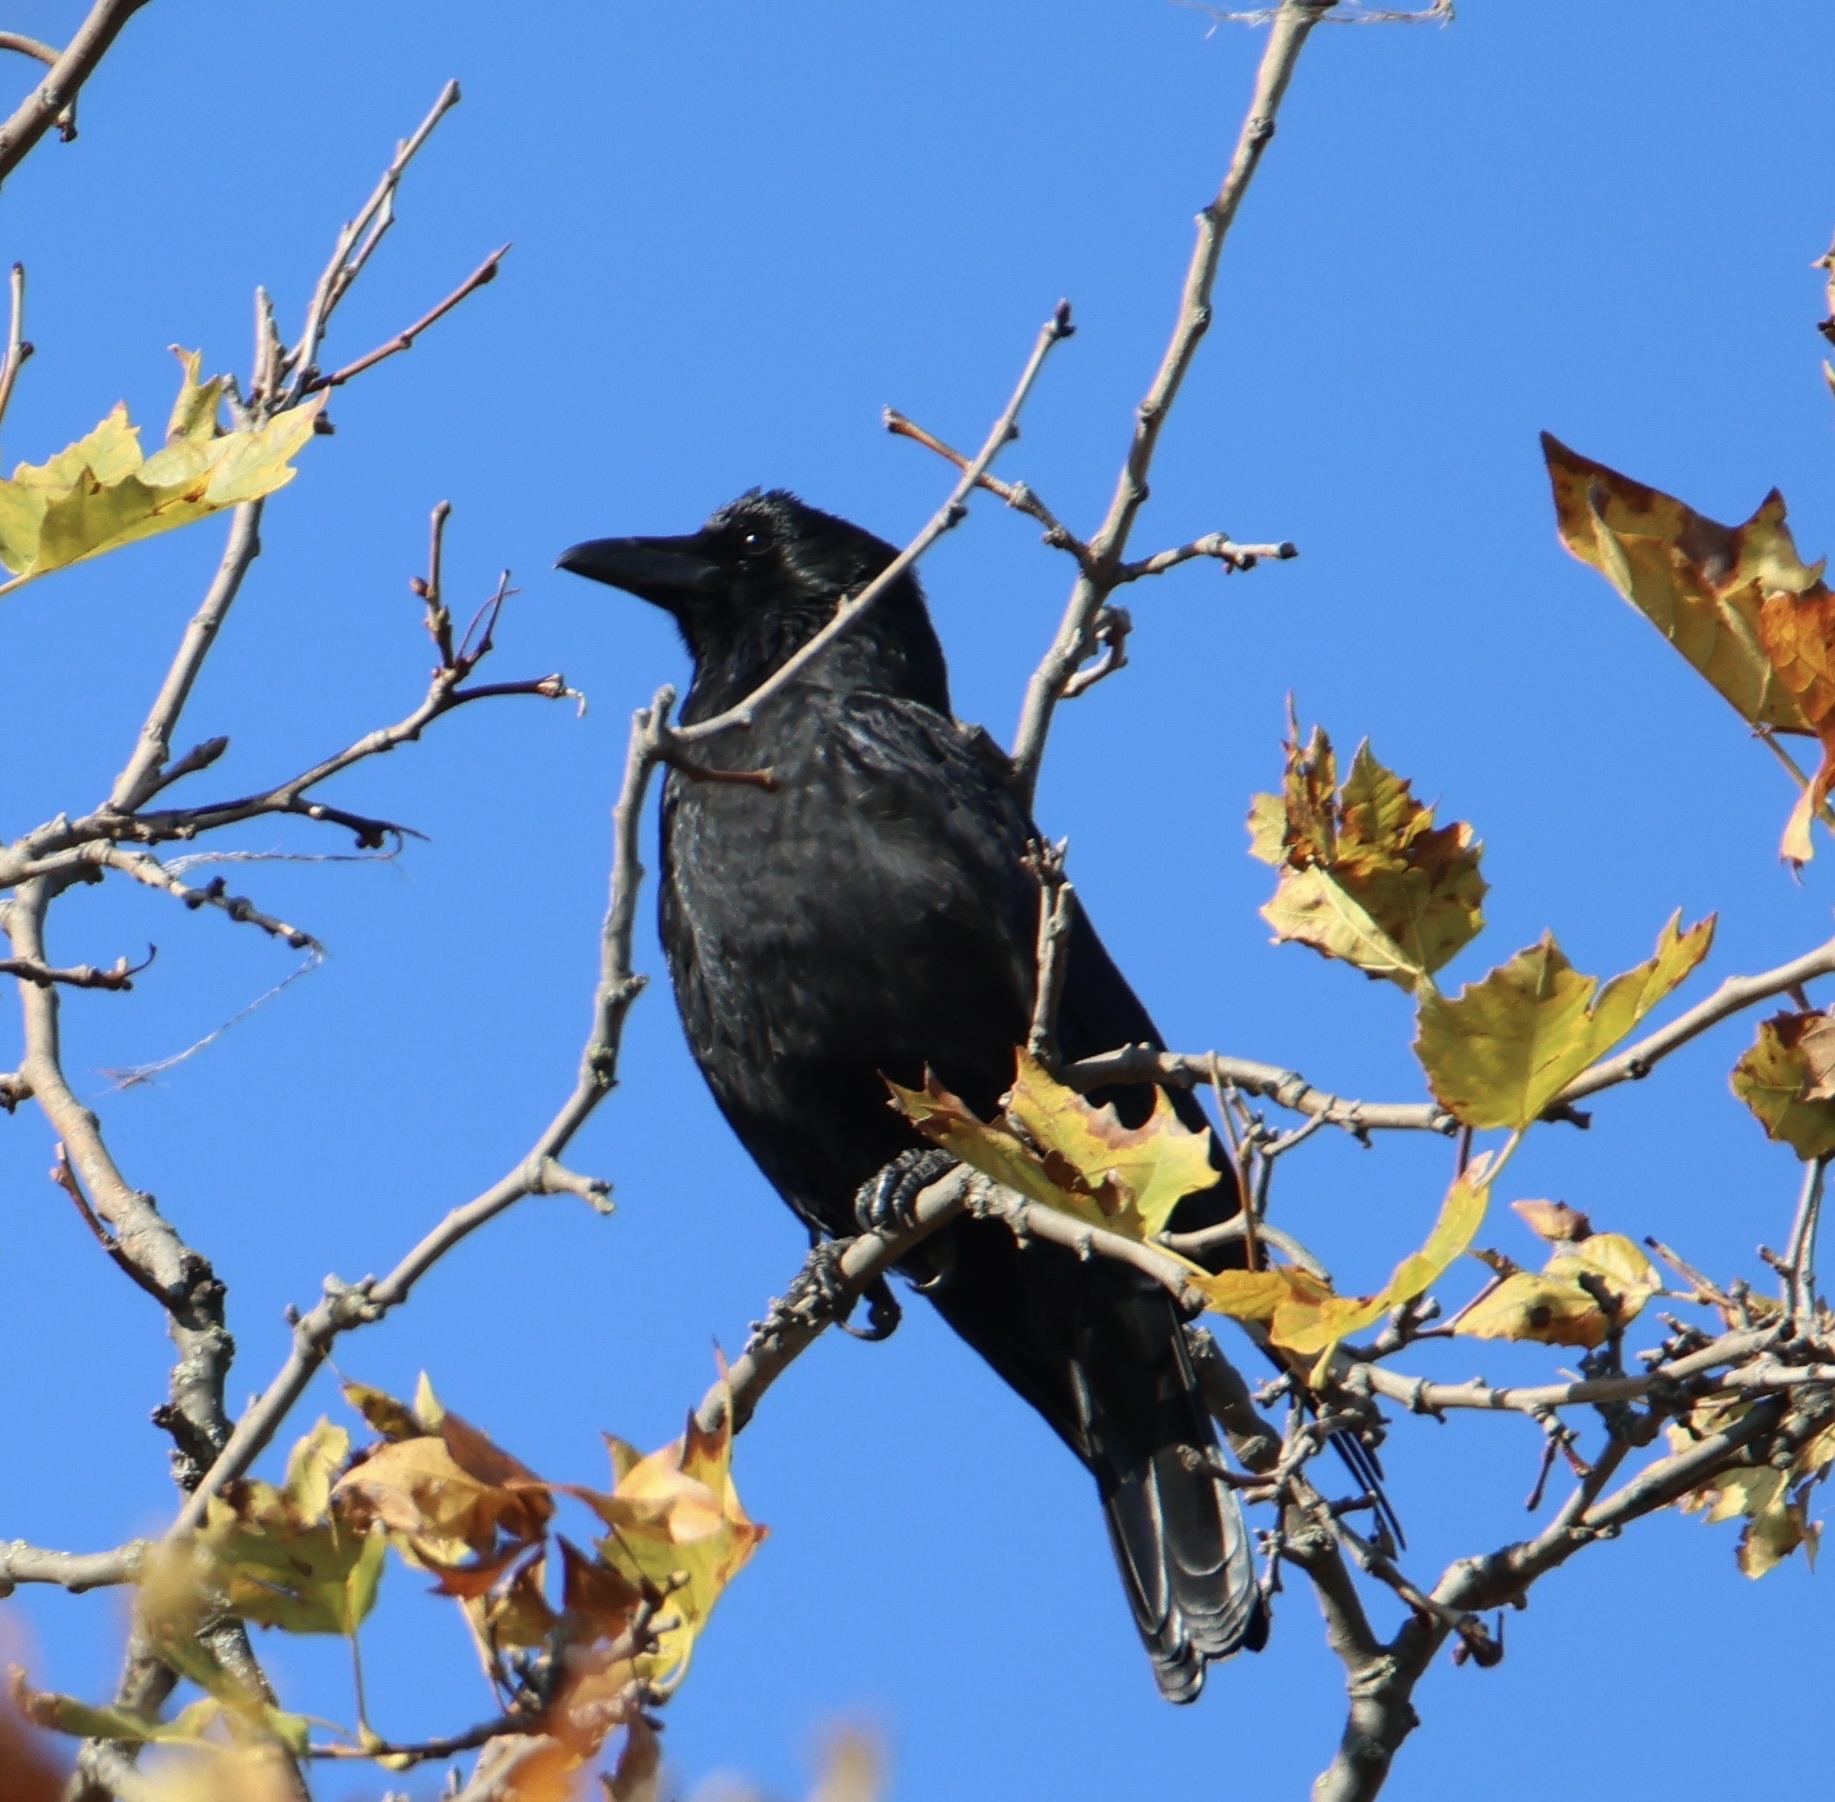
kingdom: Animalia
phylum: Chordata
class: Aves
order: Passeriformes
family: Corvidae
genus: Corvus
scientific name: Corvus corone
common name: Carrion crow
